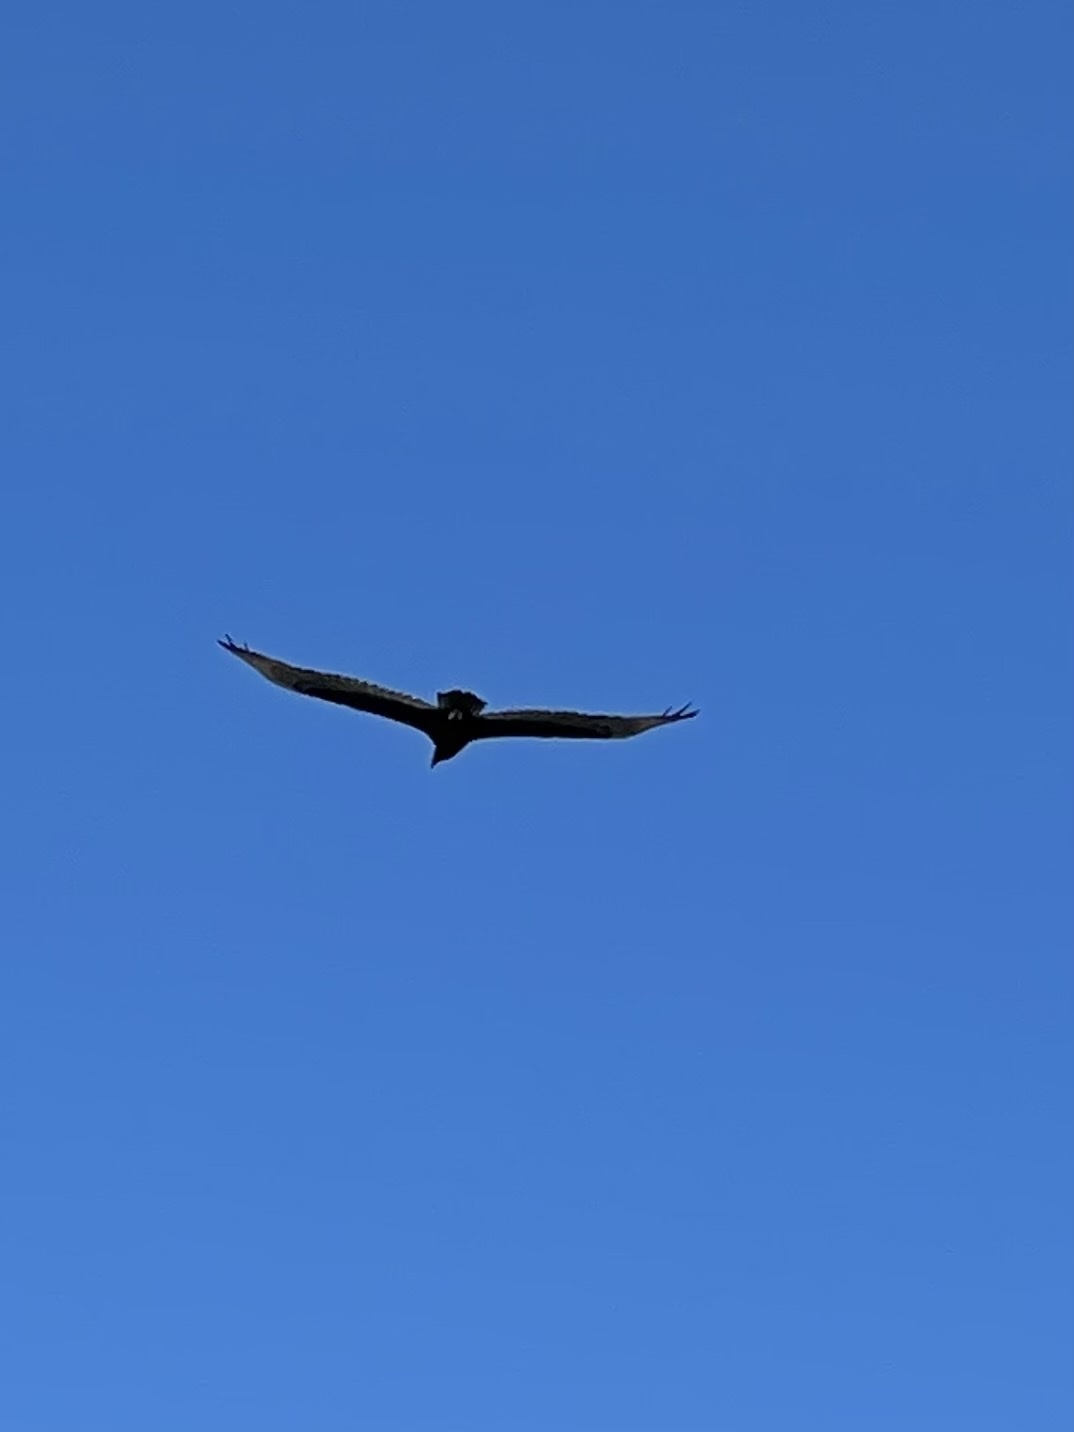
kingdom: Animalia
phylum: Chordata
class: Aves
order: Accipitriformes
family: Cathartidae
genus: Cathartes
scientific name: Cathartes aura
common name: Turkey vulture
